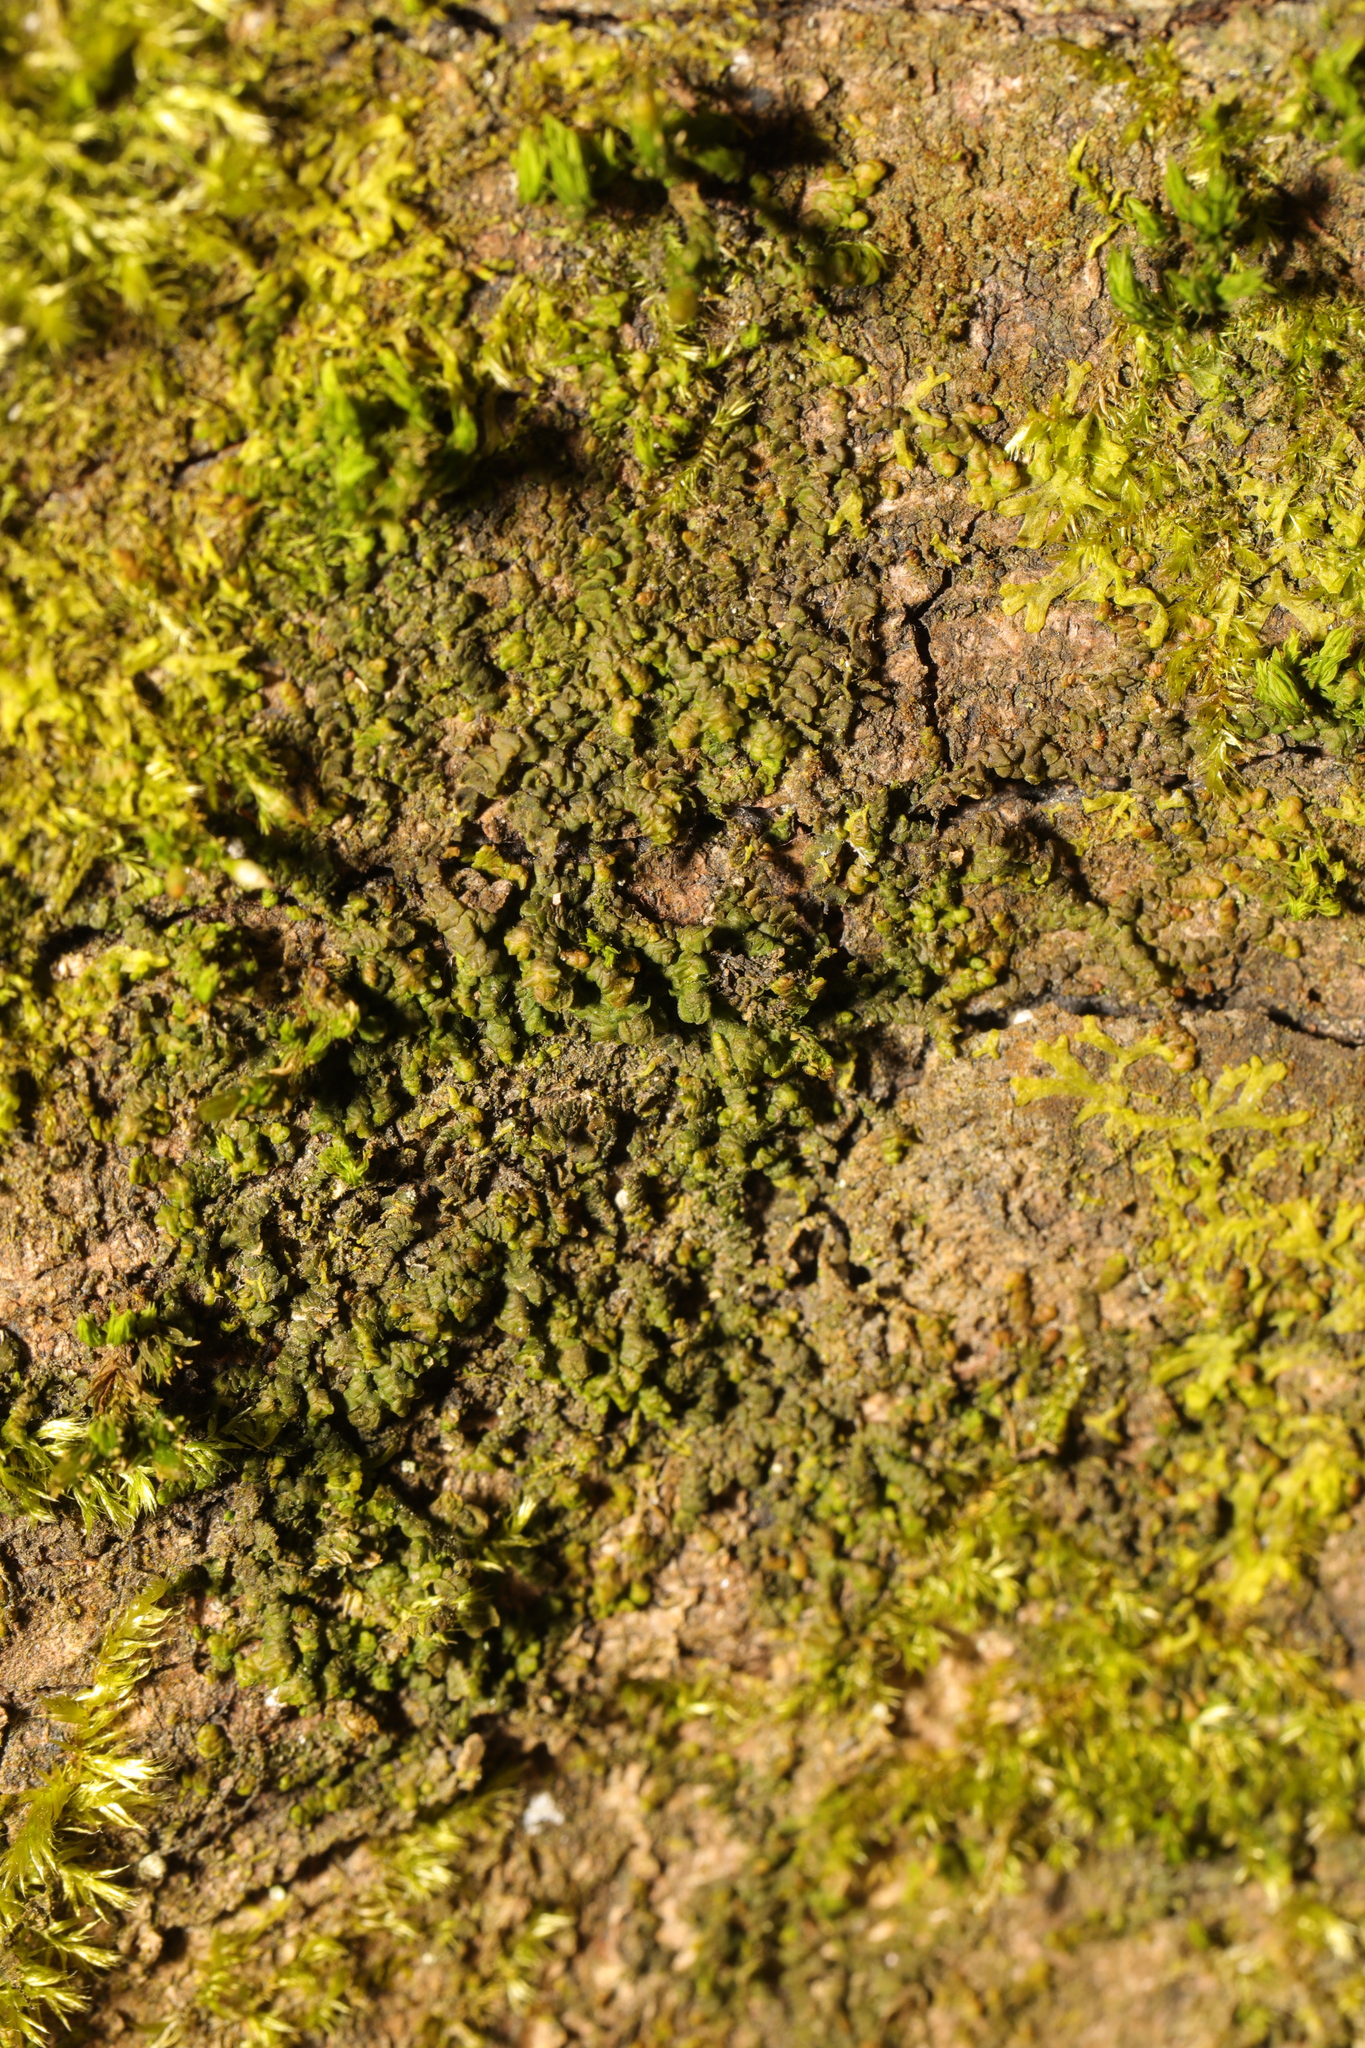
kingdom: Plantae
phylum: Marchantiophyta
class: Jungermanniopsida
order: Porellales
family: Frullaniaceae
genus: Frullania
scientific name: Frullania dilatata
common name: Dilated scalewort
